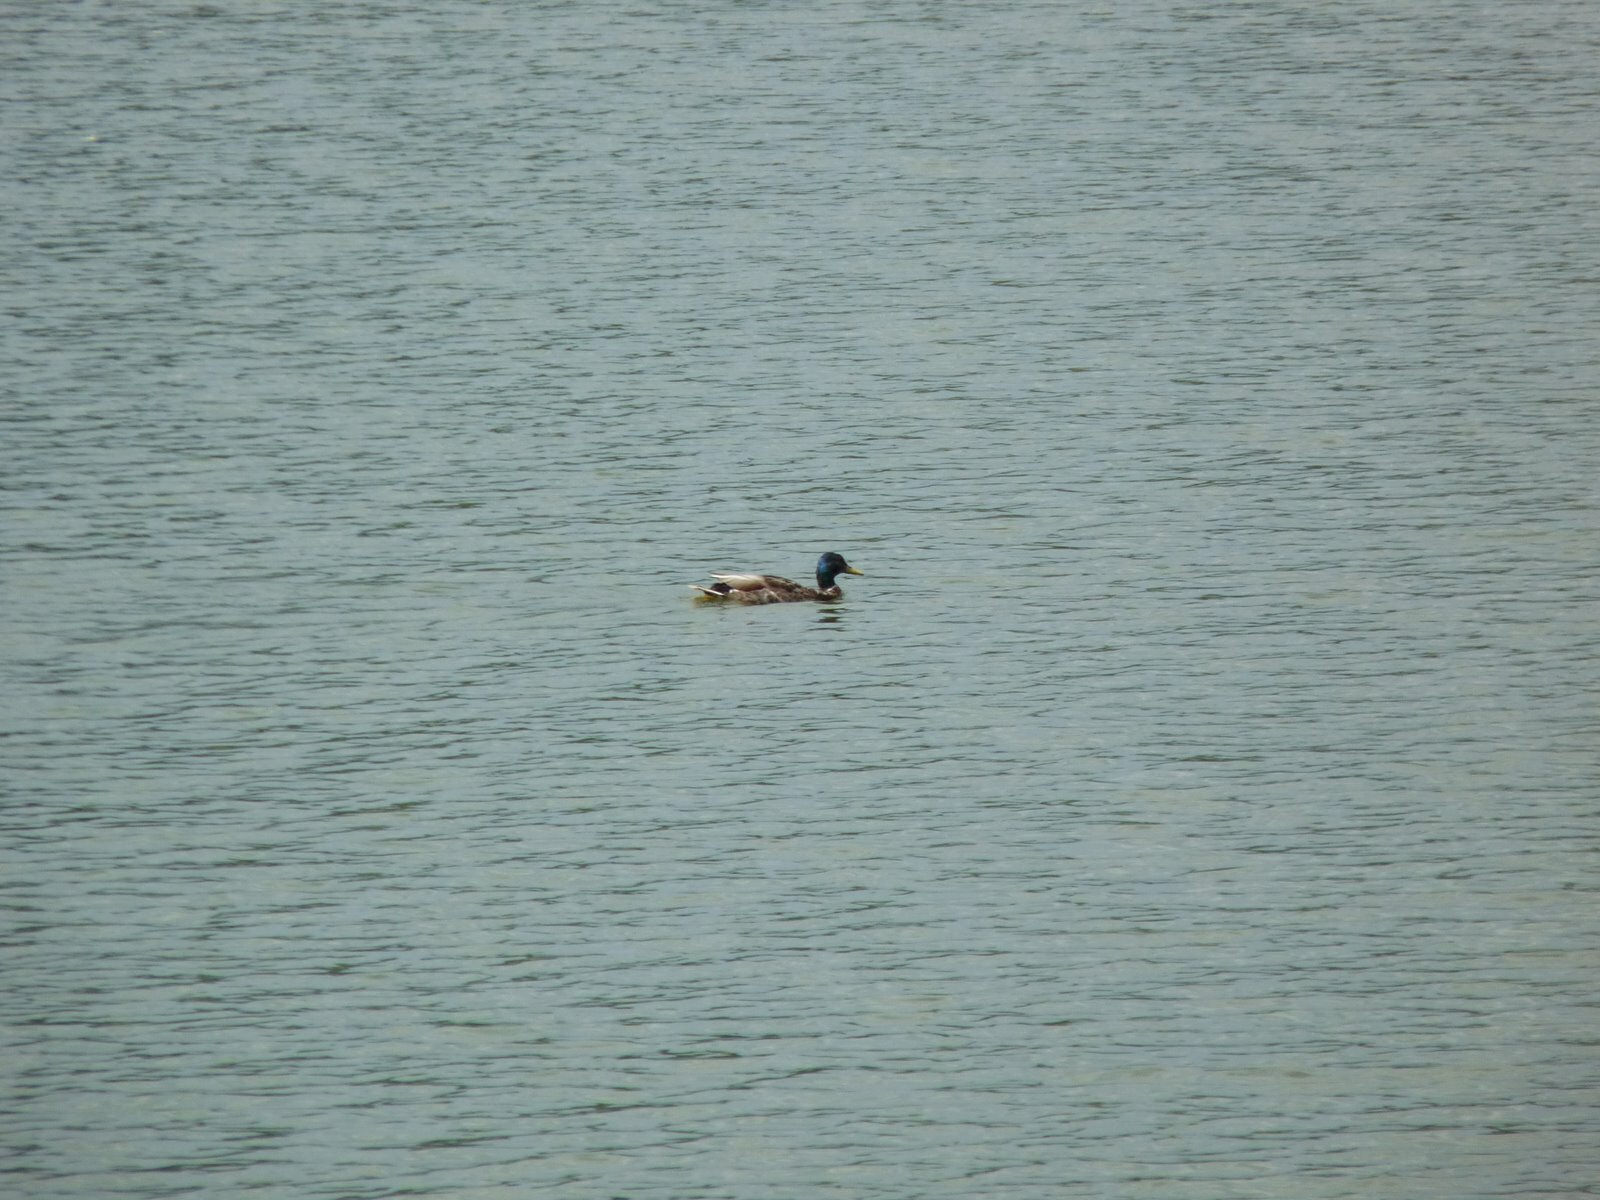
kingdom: Animalia
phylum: Chordata
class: Aves
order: Anseriformes
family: Anatidae
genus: Anas
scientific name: Anas platyrhynchos
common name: Mallard
